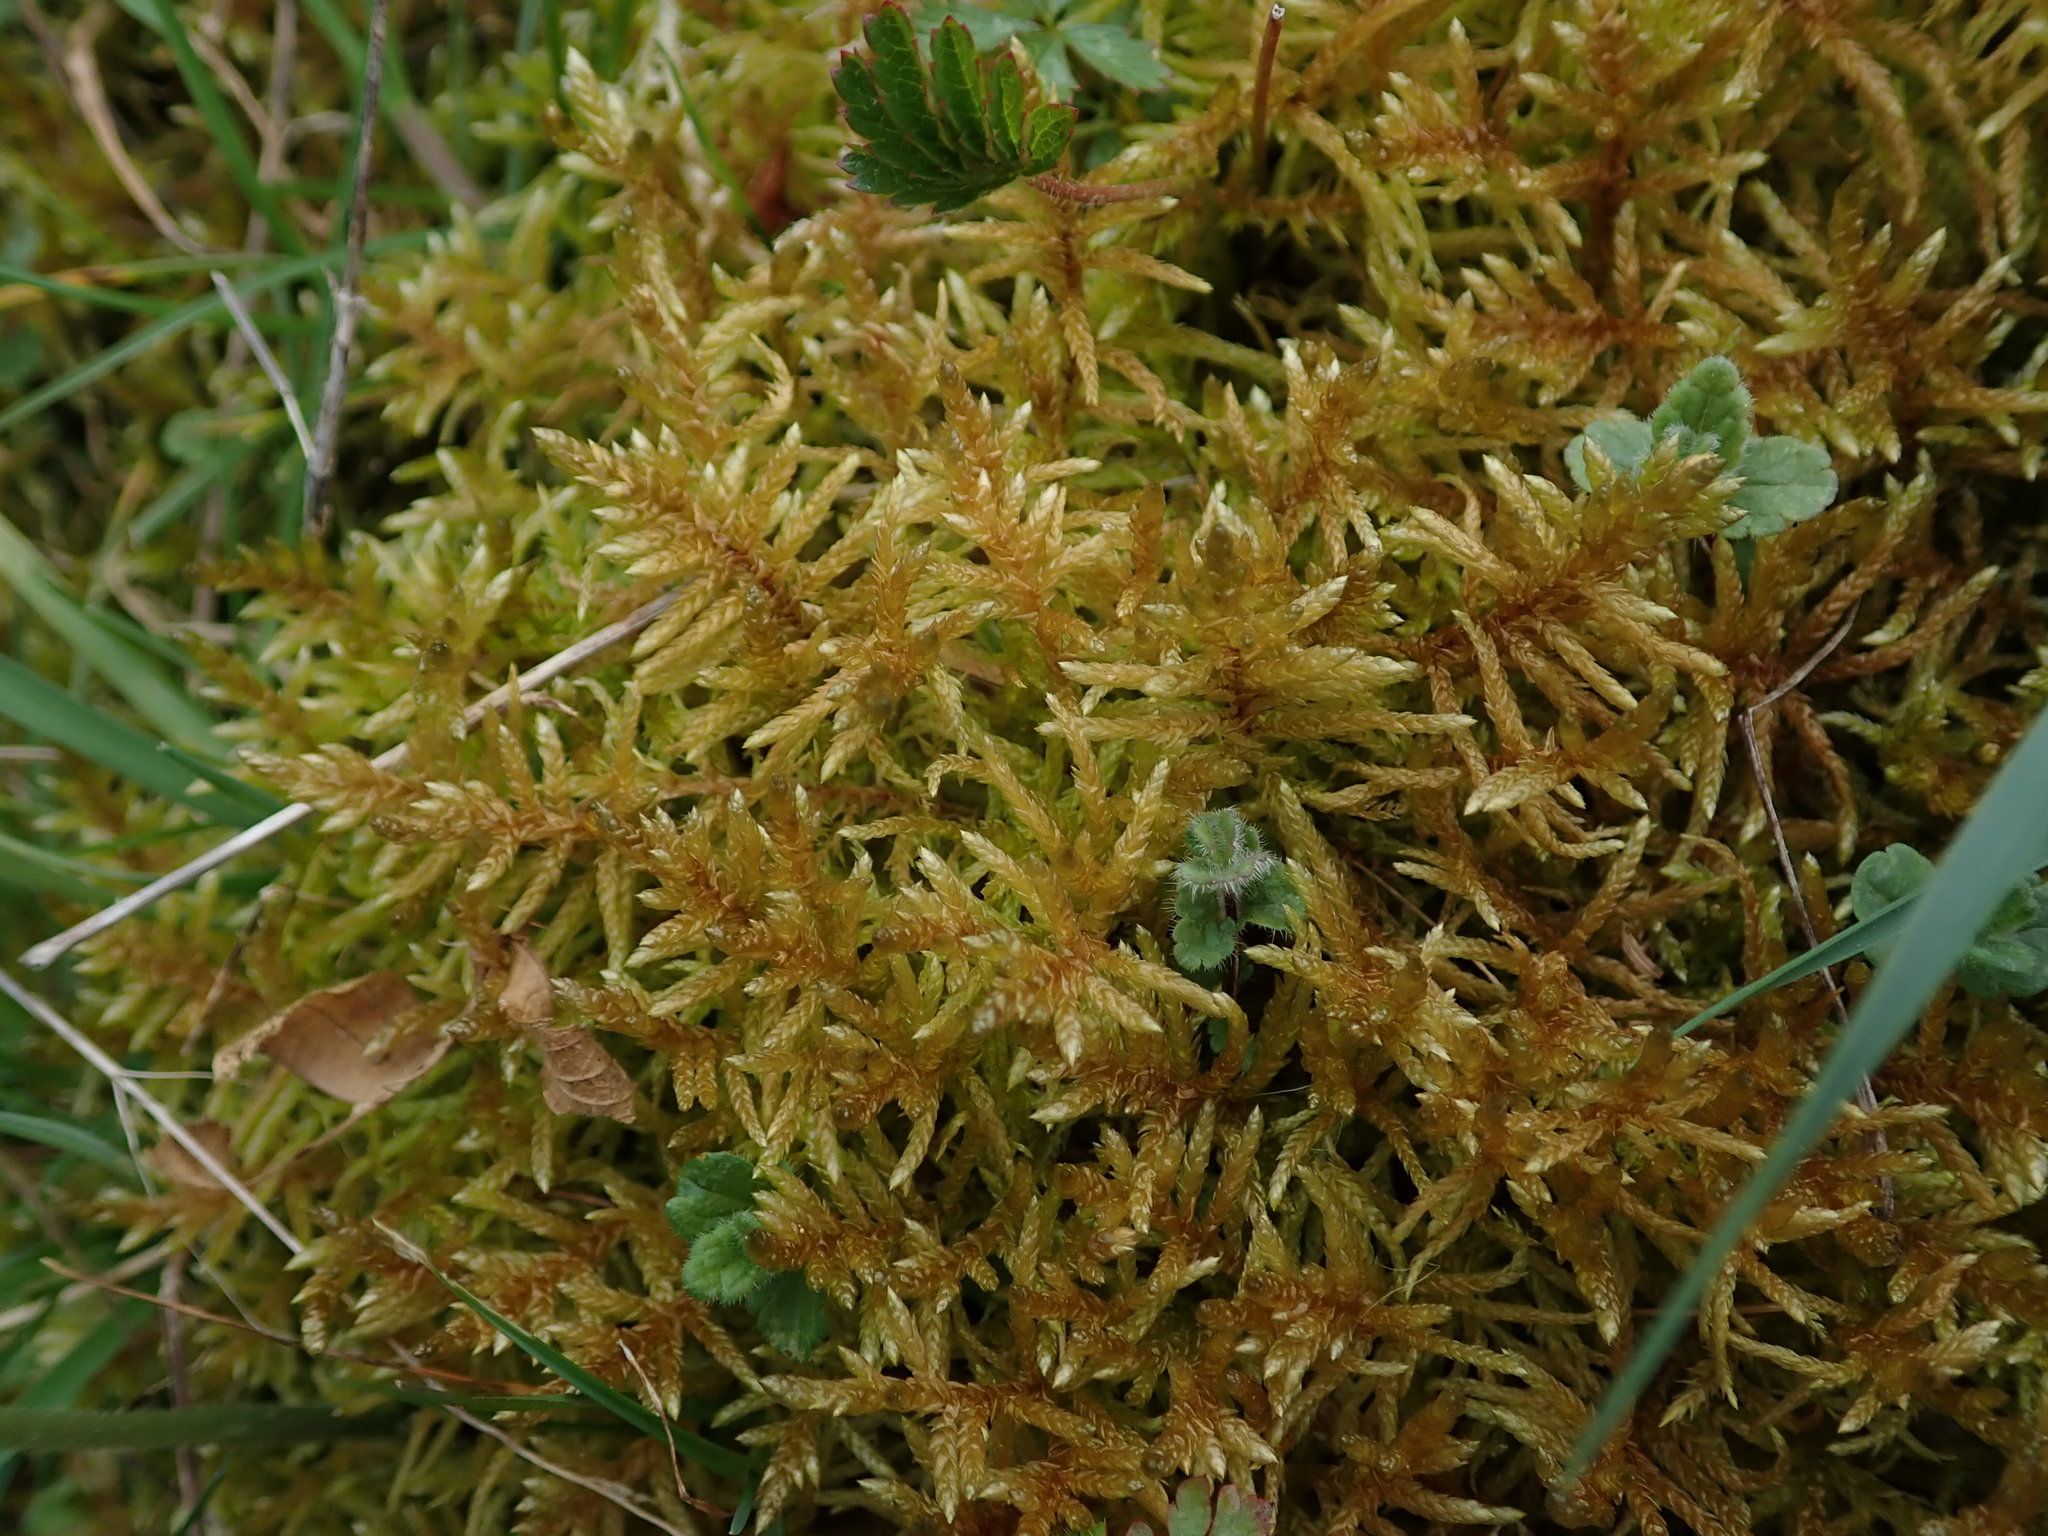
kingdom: Plantae
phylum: Bryophyta
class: Bryopsida
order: Hypnales
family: Brachytheciaceae
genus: Pseudoscleropodium
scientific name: Pseudoscleropodium purum
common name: Neat feather-moss
